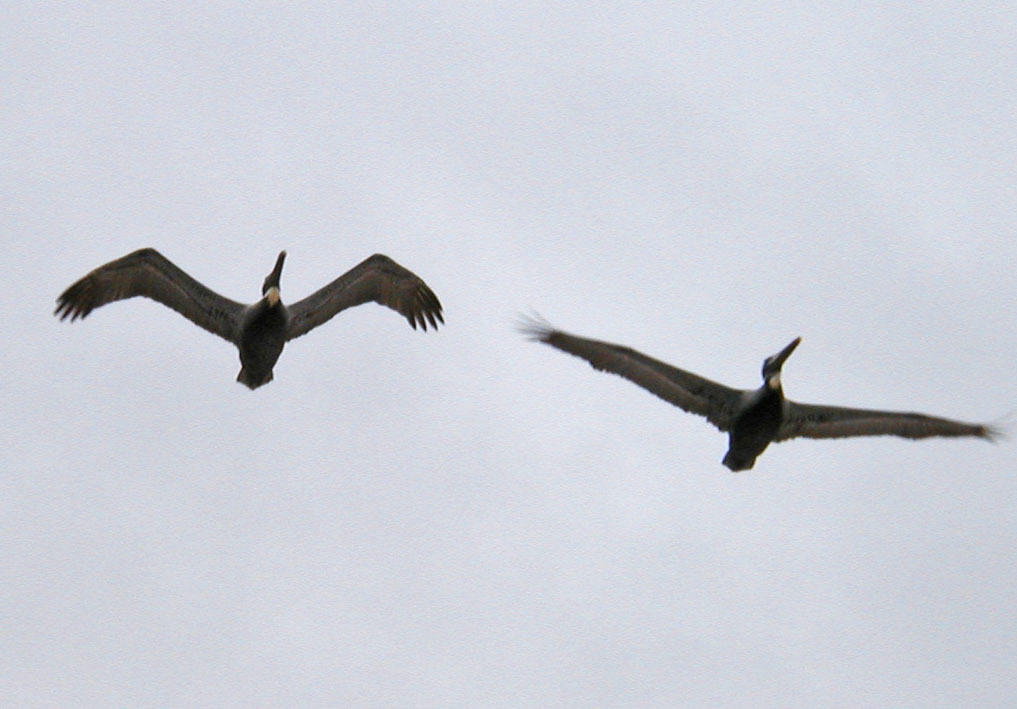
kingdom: Animalia
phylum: Chordata
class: Aves
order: Pelecaniformes
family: Pelecanidae
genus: Pelecanus
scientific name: Pelecanus occidentalis
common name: Brown pelican
